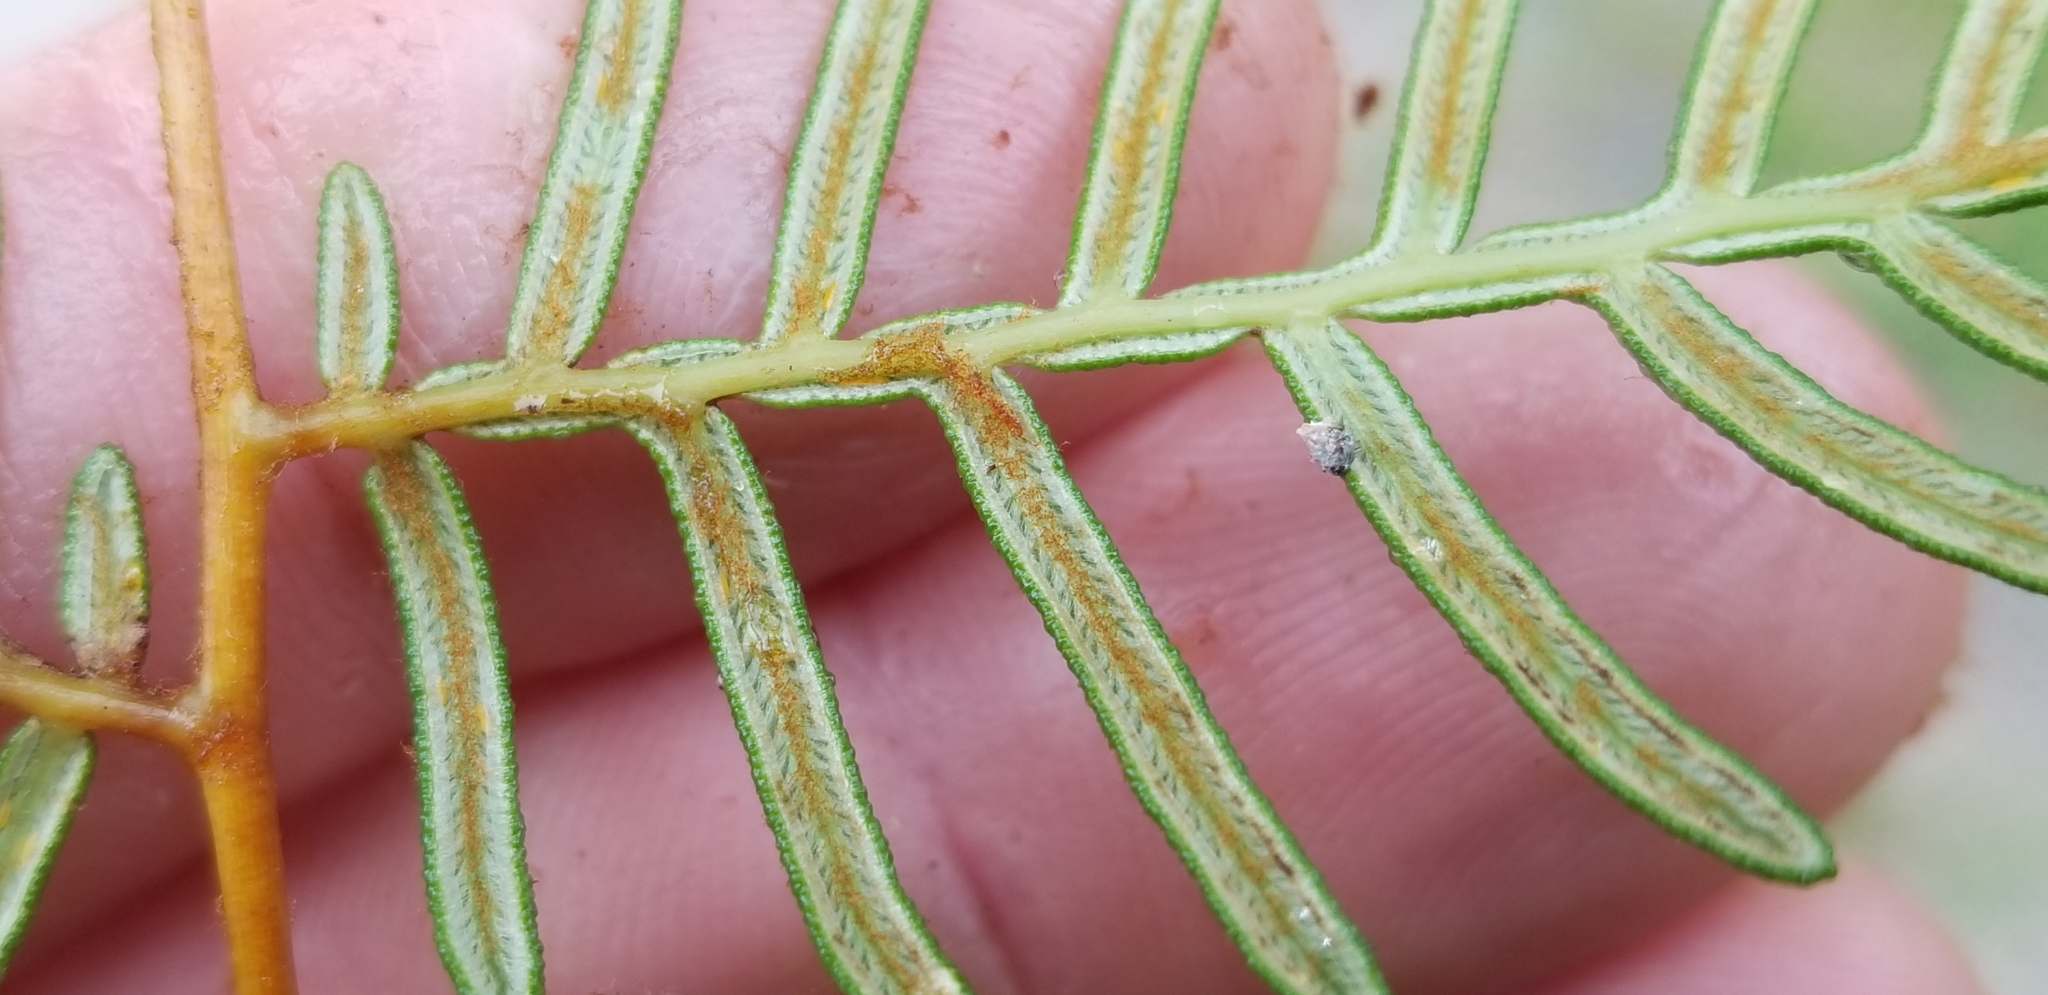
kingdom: Plantae
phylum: Tracheophyta
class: Polypodiopsida
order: Polypodiales
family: Dennstaedtiaceae
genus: Pteridium
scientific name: Pteridium esculentum
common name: Bracken fern
